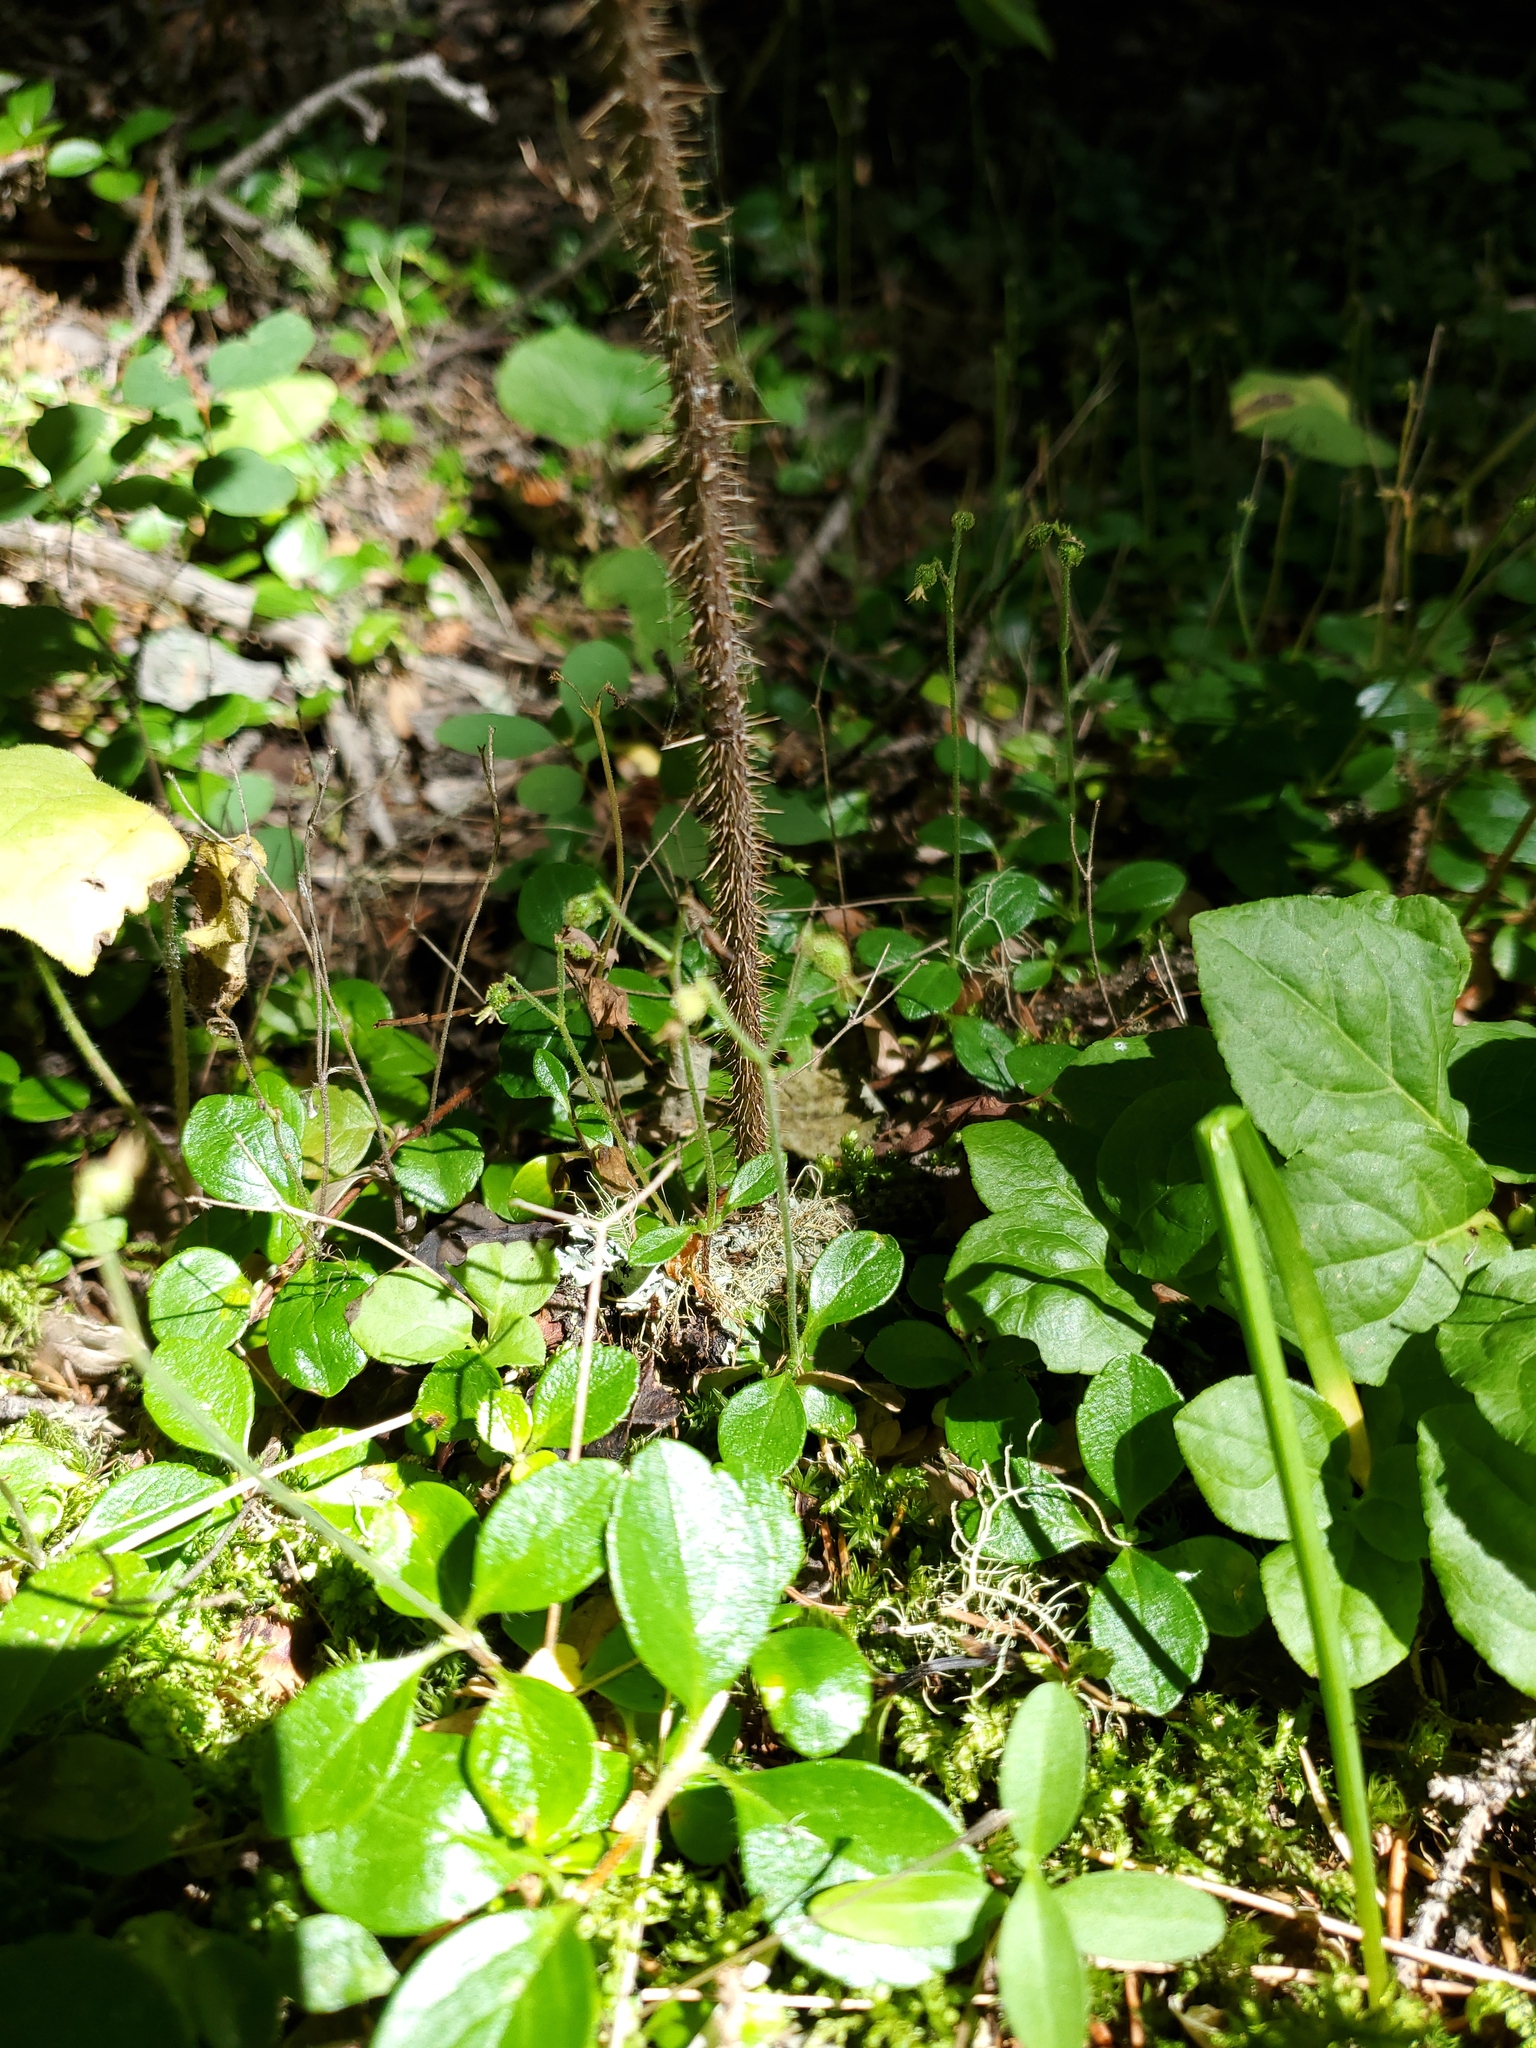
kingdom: Plantae
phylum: Tracheophyta
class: Magnoliopsida
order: Dipsacales
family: Caprifoliaceae
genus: Linnaea
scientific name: Linnaea borealis
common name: Twinflower
